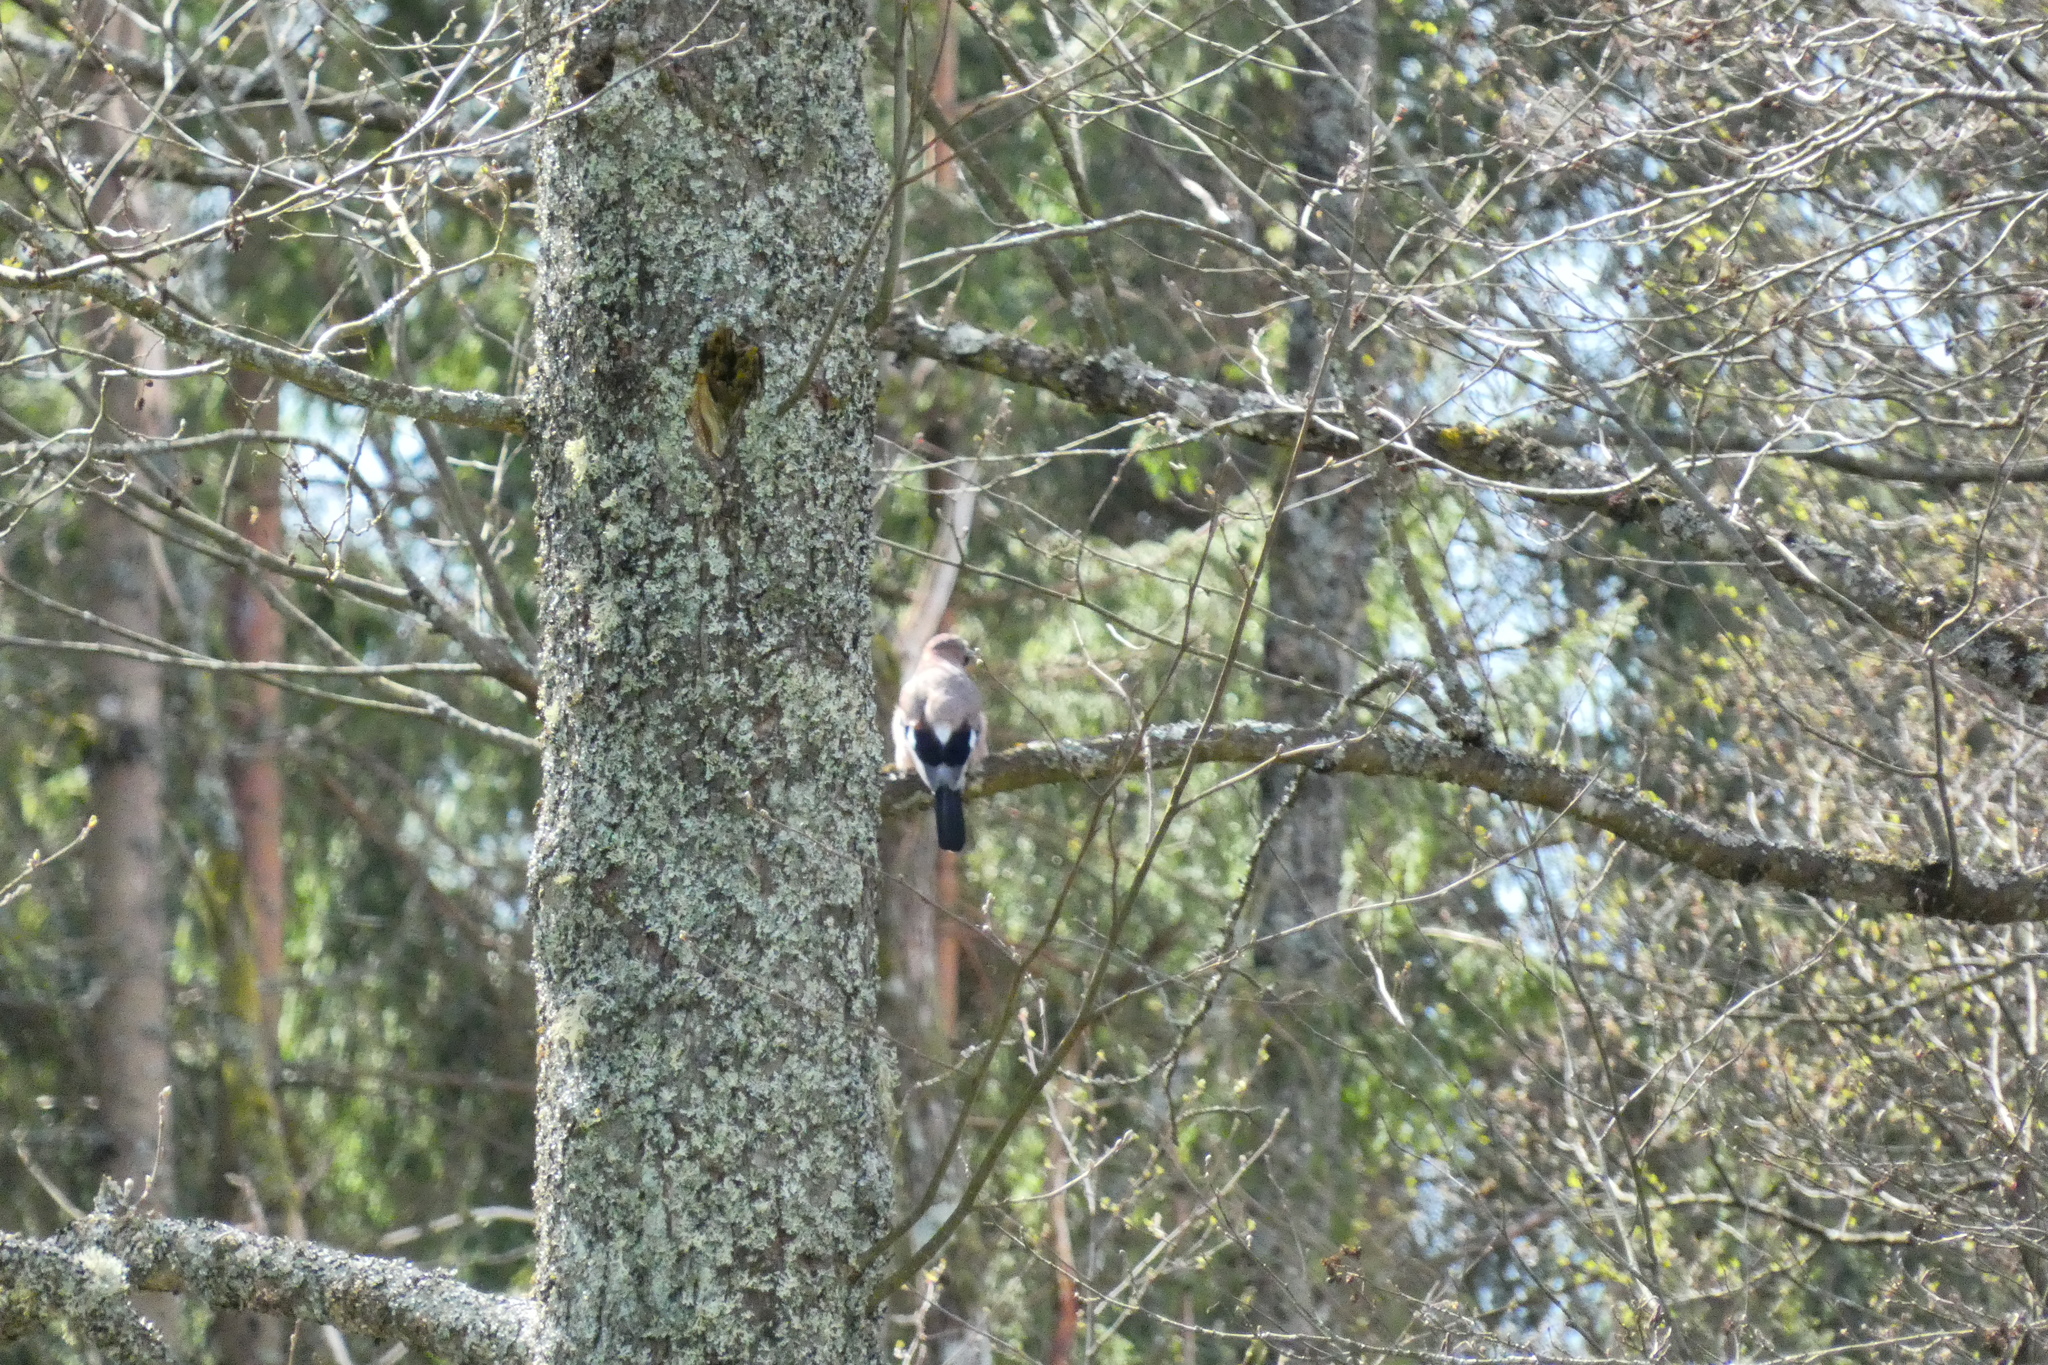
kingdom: Animalia
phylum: Chordata
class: Aves
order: Passeriformes
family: Corvidae
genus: Garrulus
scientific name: Garrulus glandarius
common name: Eurasian jay
